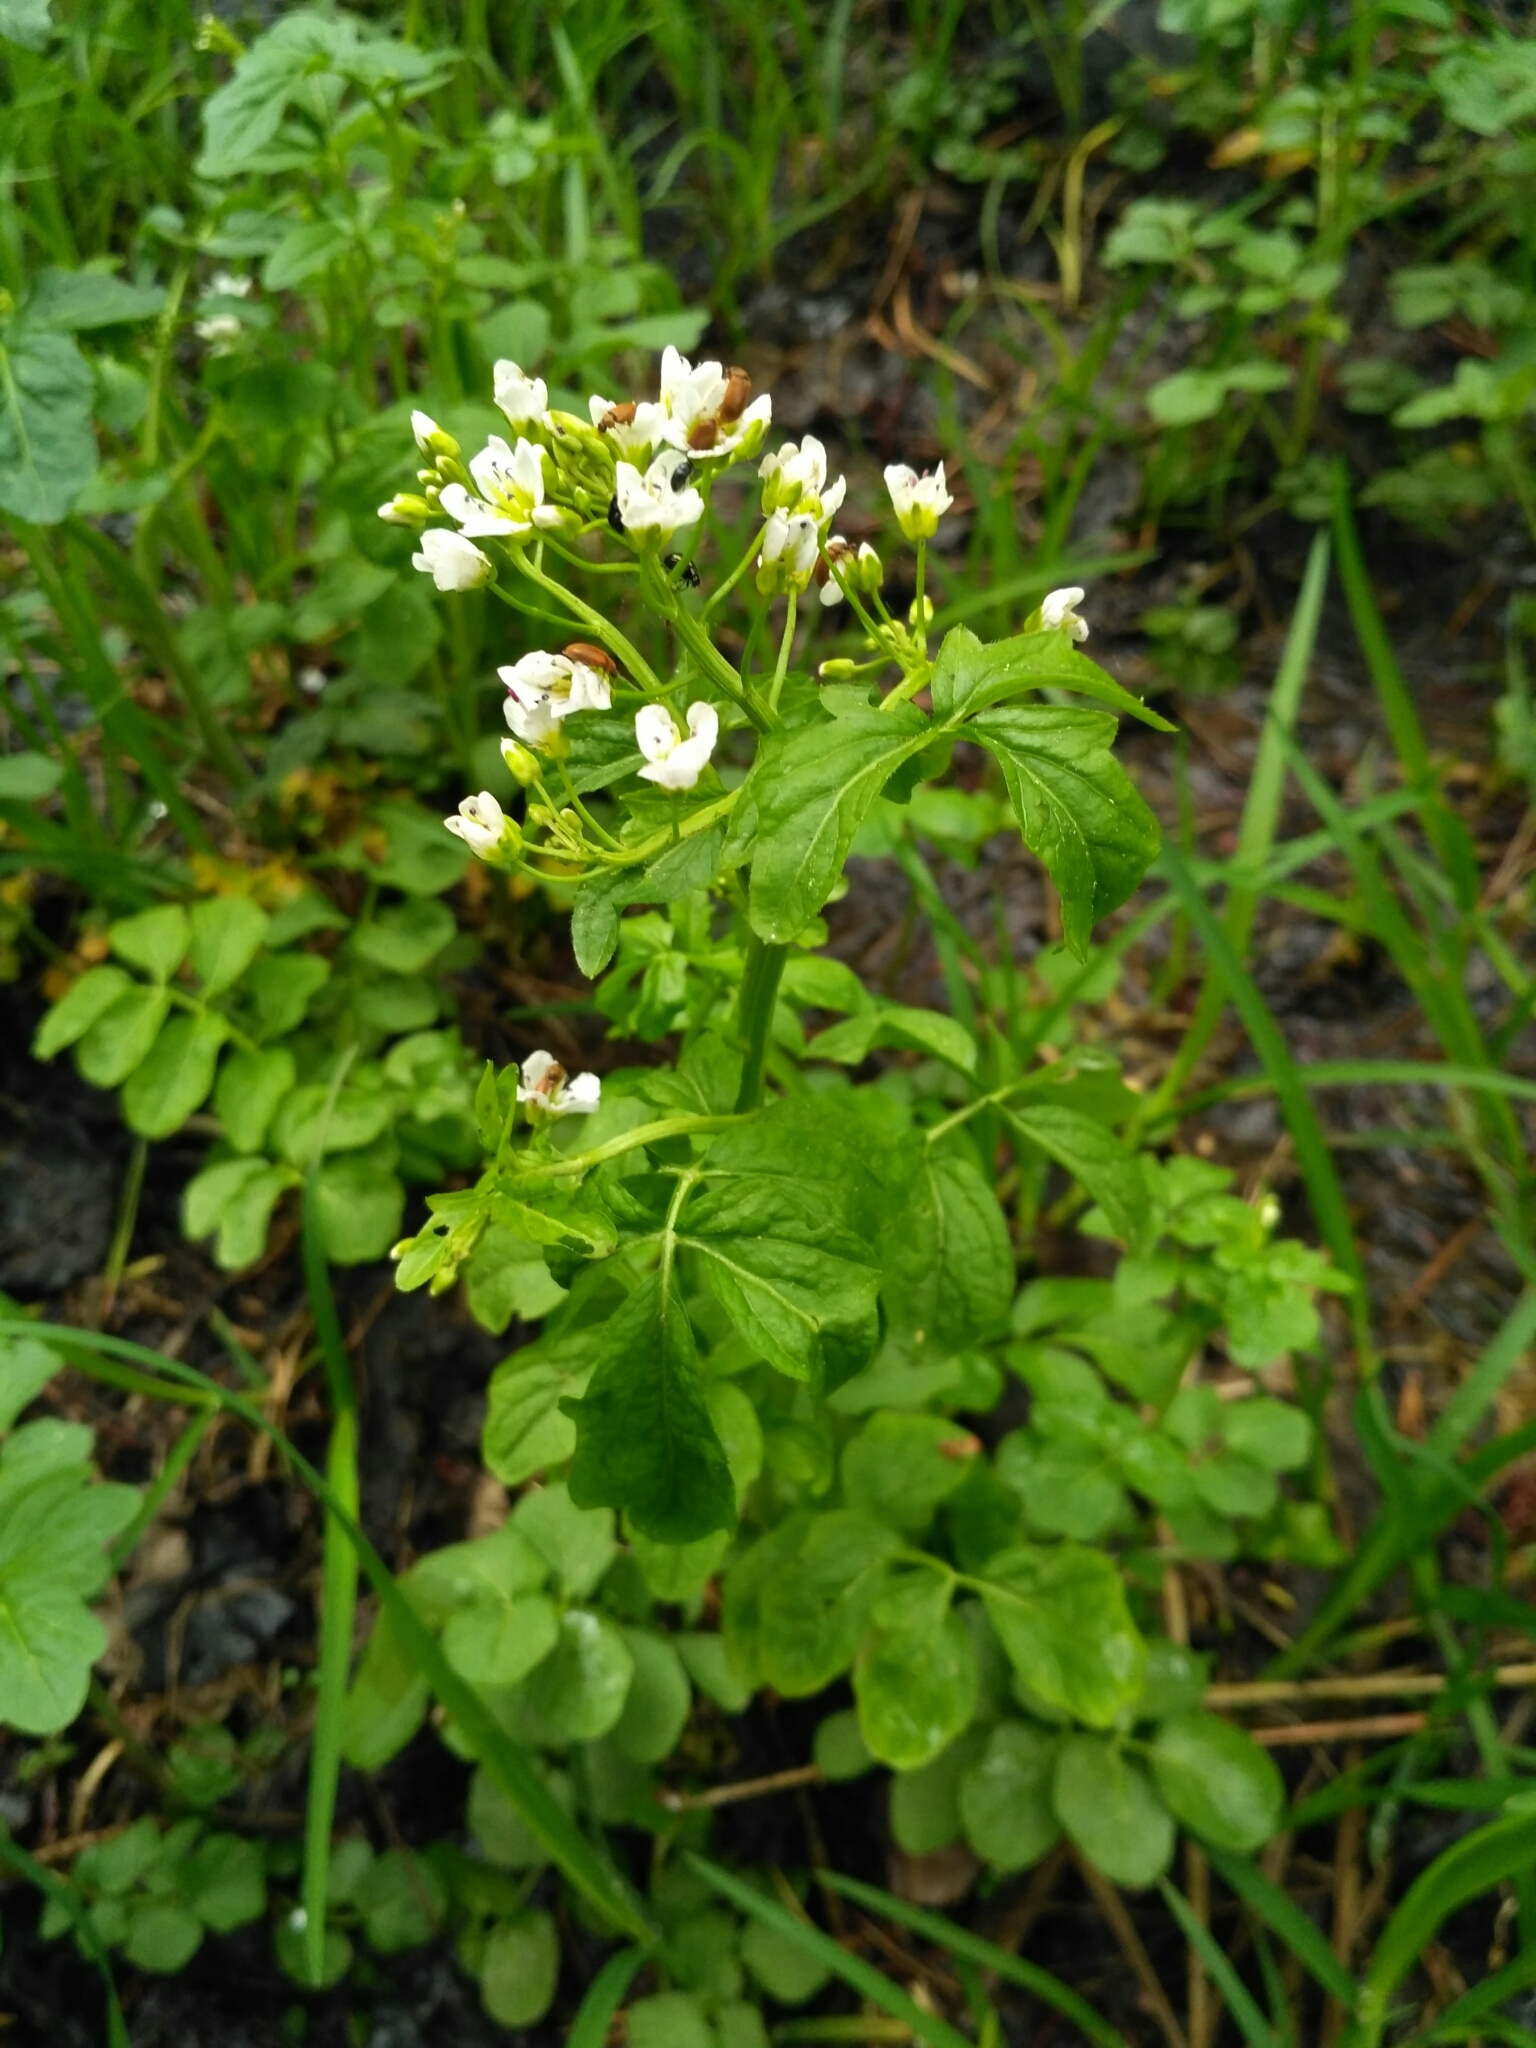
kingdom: Plantae
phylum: Tracheophyta
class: Magnoliopsida
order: Brassicales
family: Brassicaceae
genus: Cardamine
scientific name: Cardamine amara
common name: Large bitter-cress
